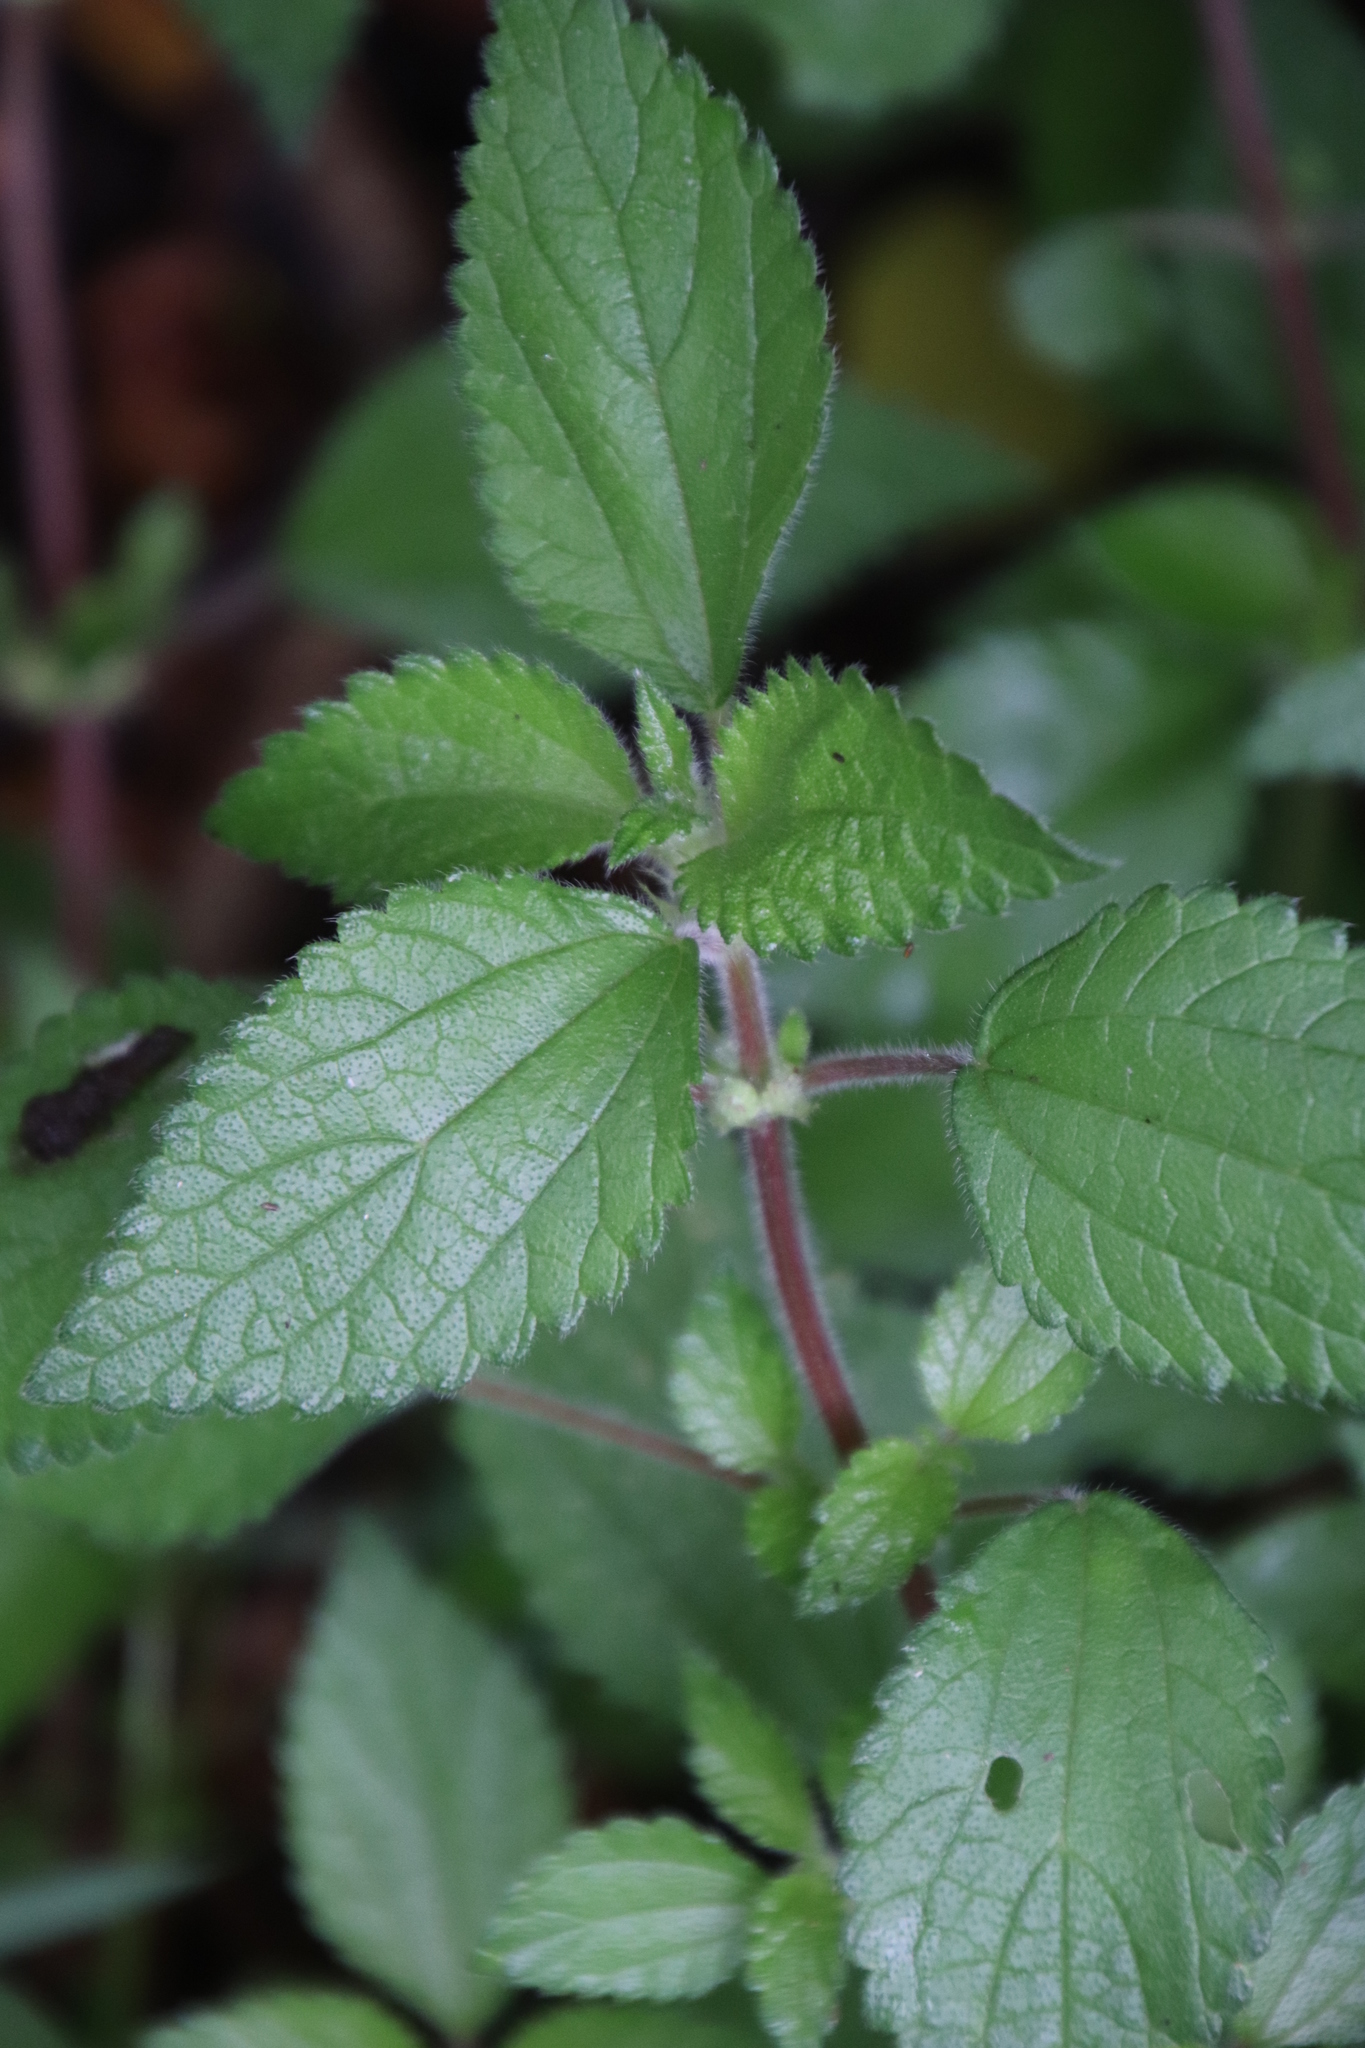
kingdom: Plantae
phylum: Tracheophyta
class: Magnoliopsida
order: Rosales
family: Urticaceae
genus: Droguetia
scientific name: Droguetia iners
